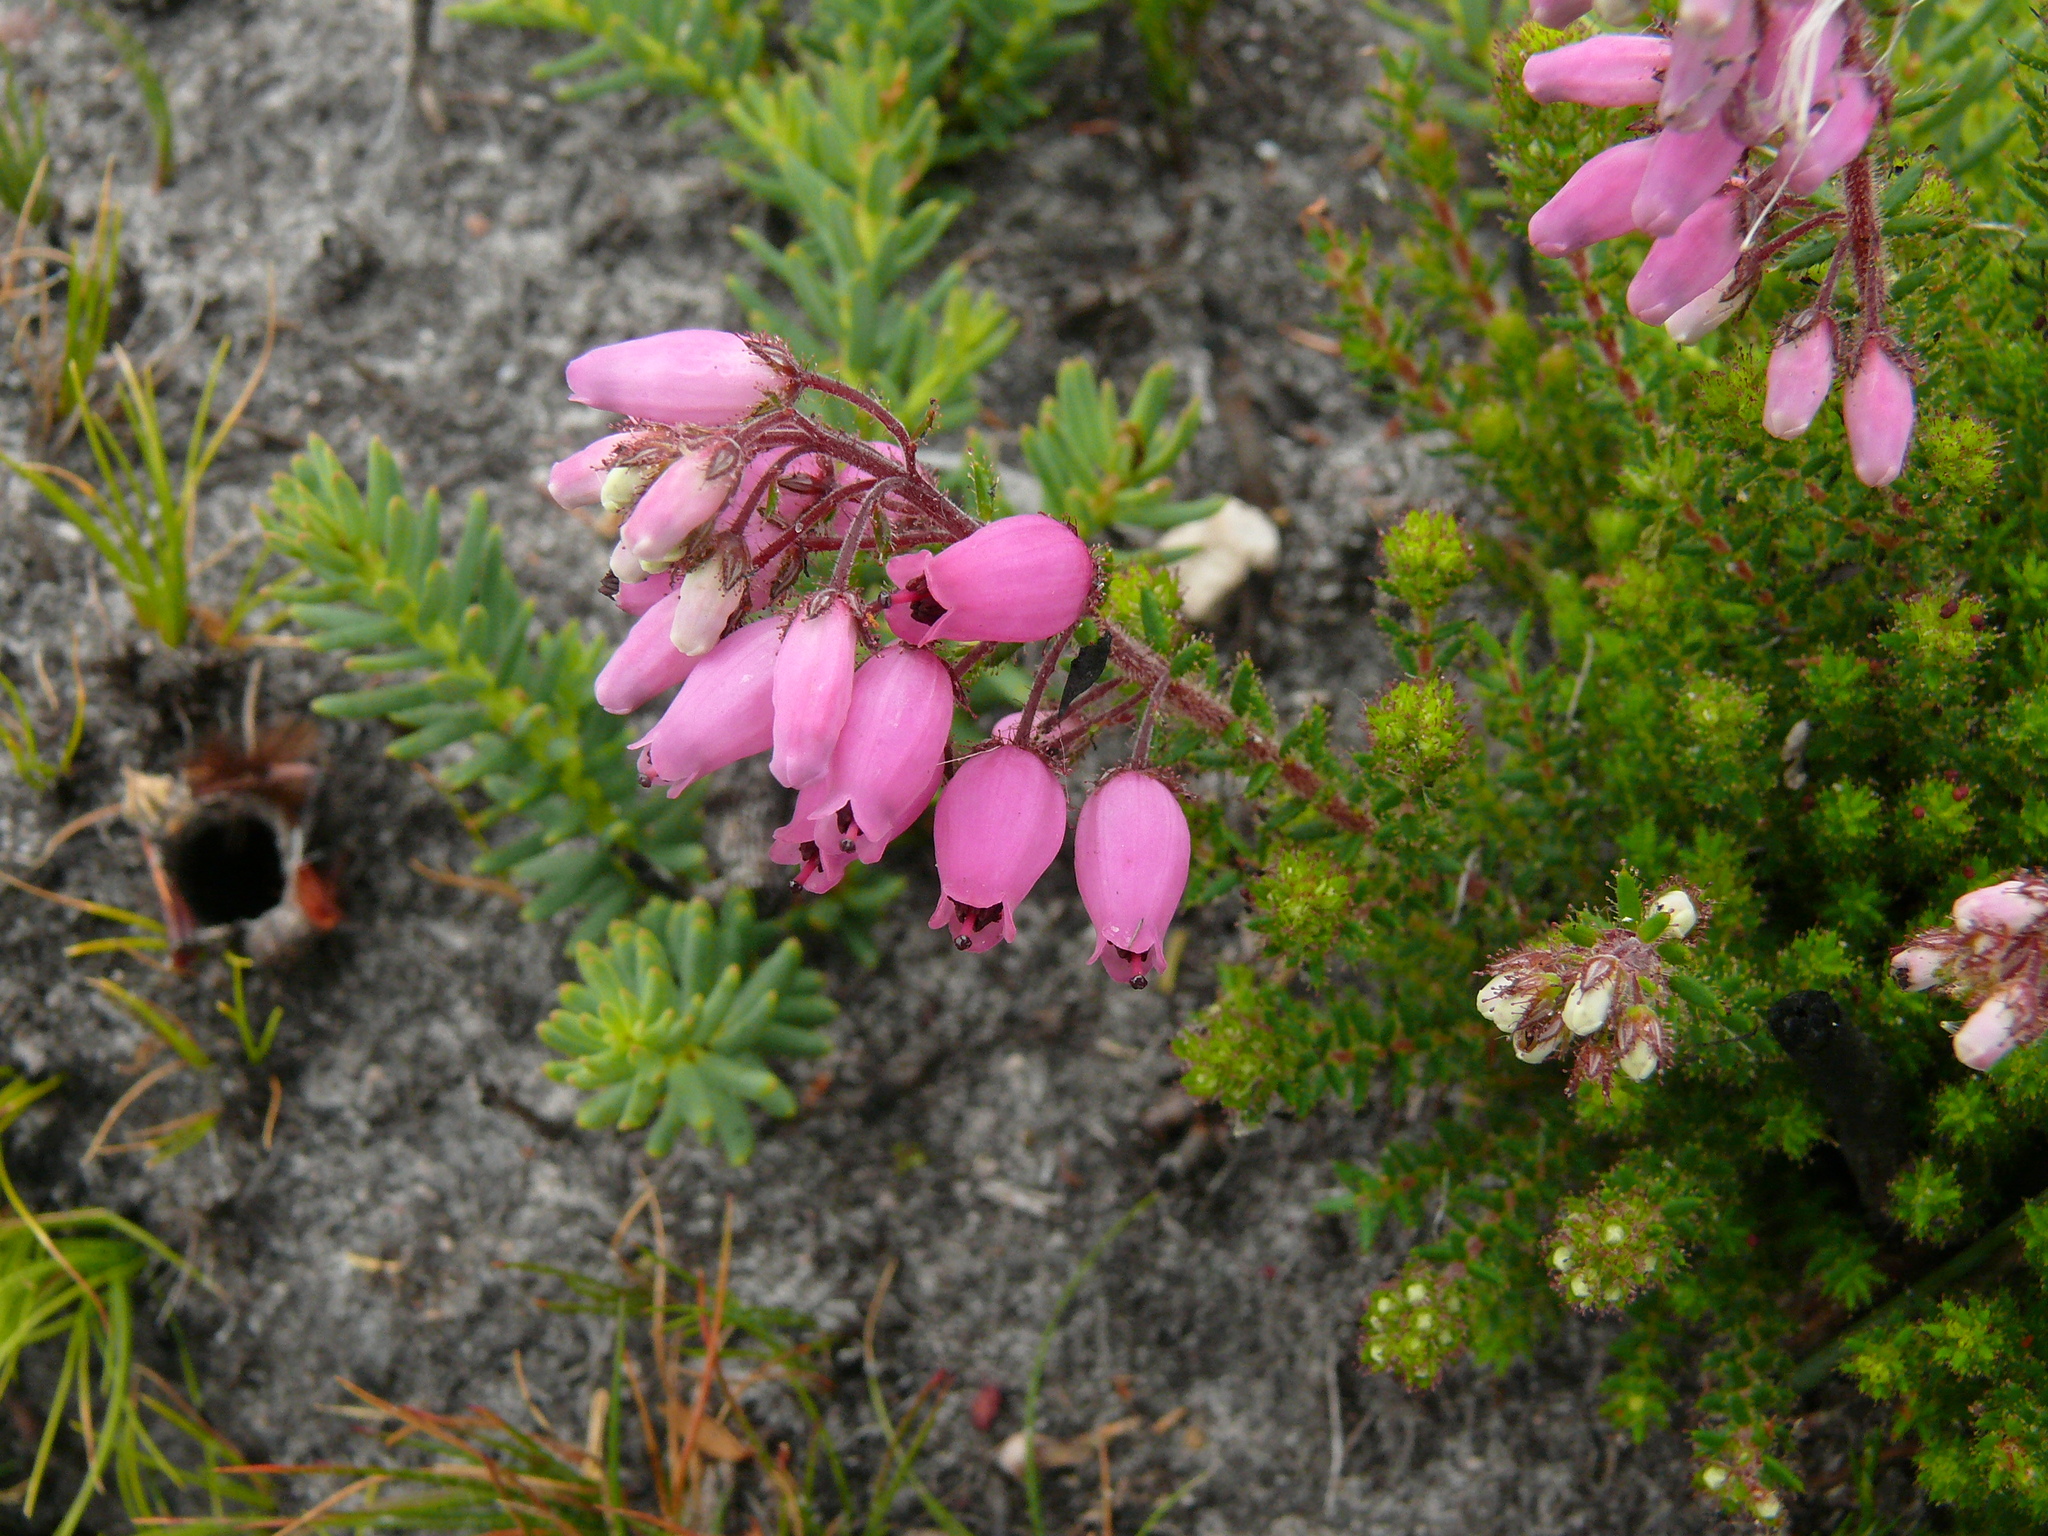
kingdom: Plantae
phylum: Tracheophyta
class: Magnoliopsida
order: Ericales
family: Ericaceae
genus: Erica
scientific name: Erica armata
